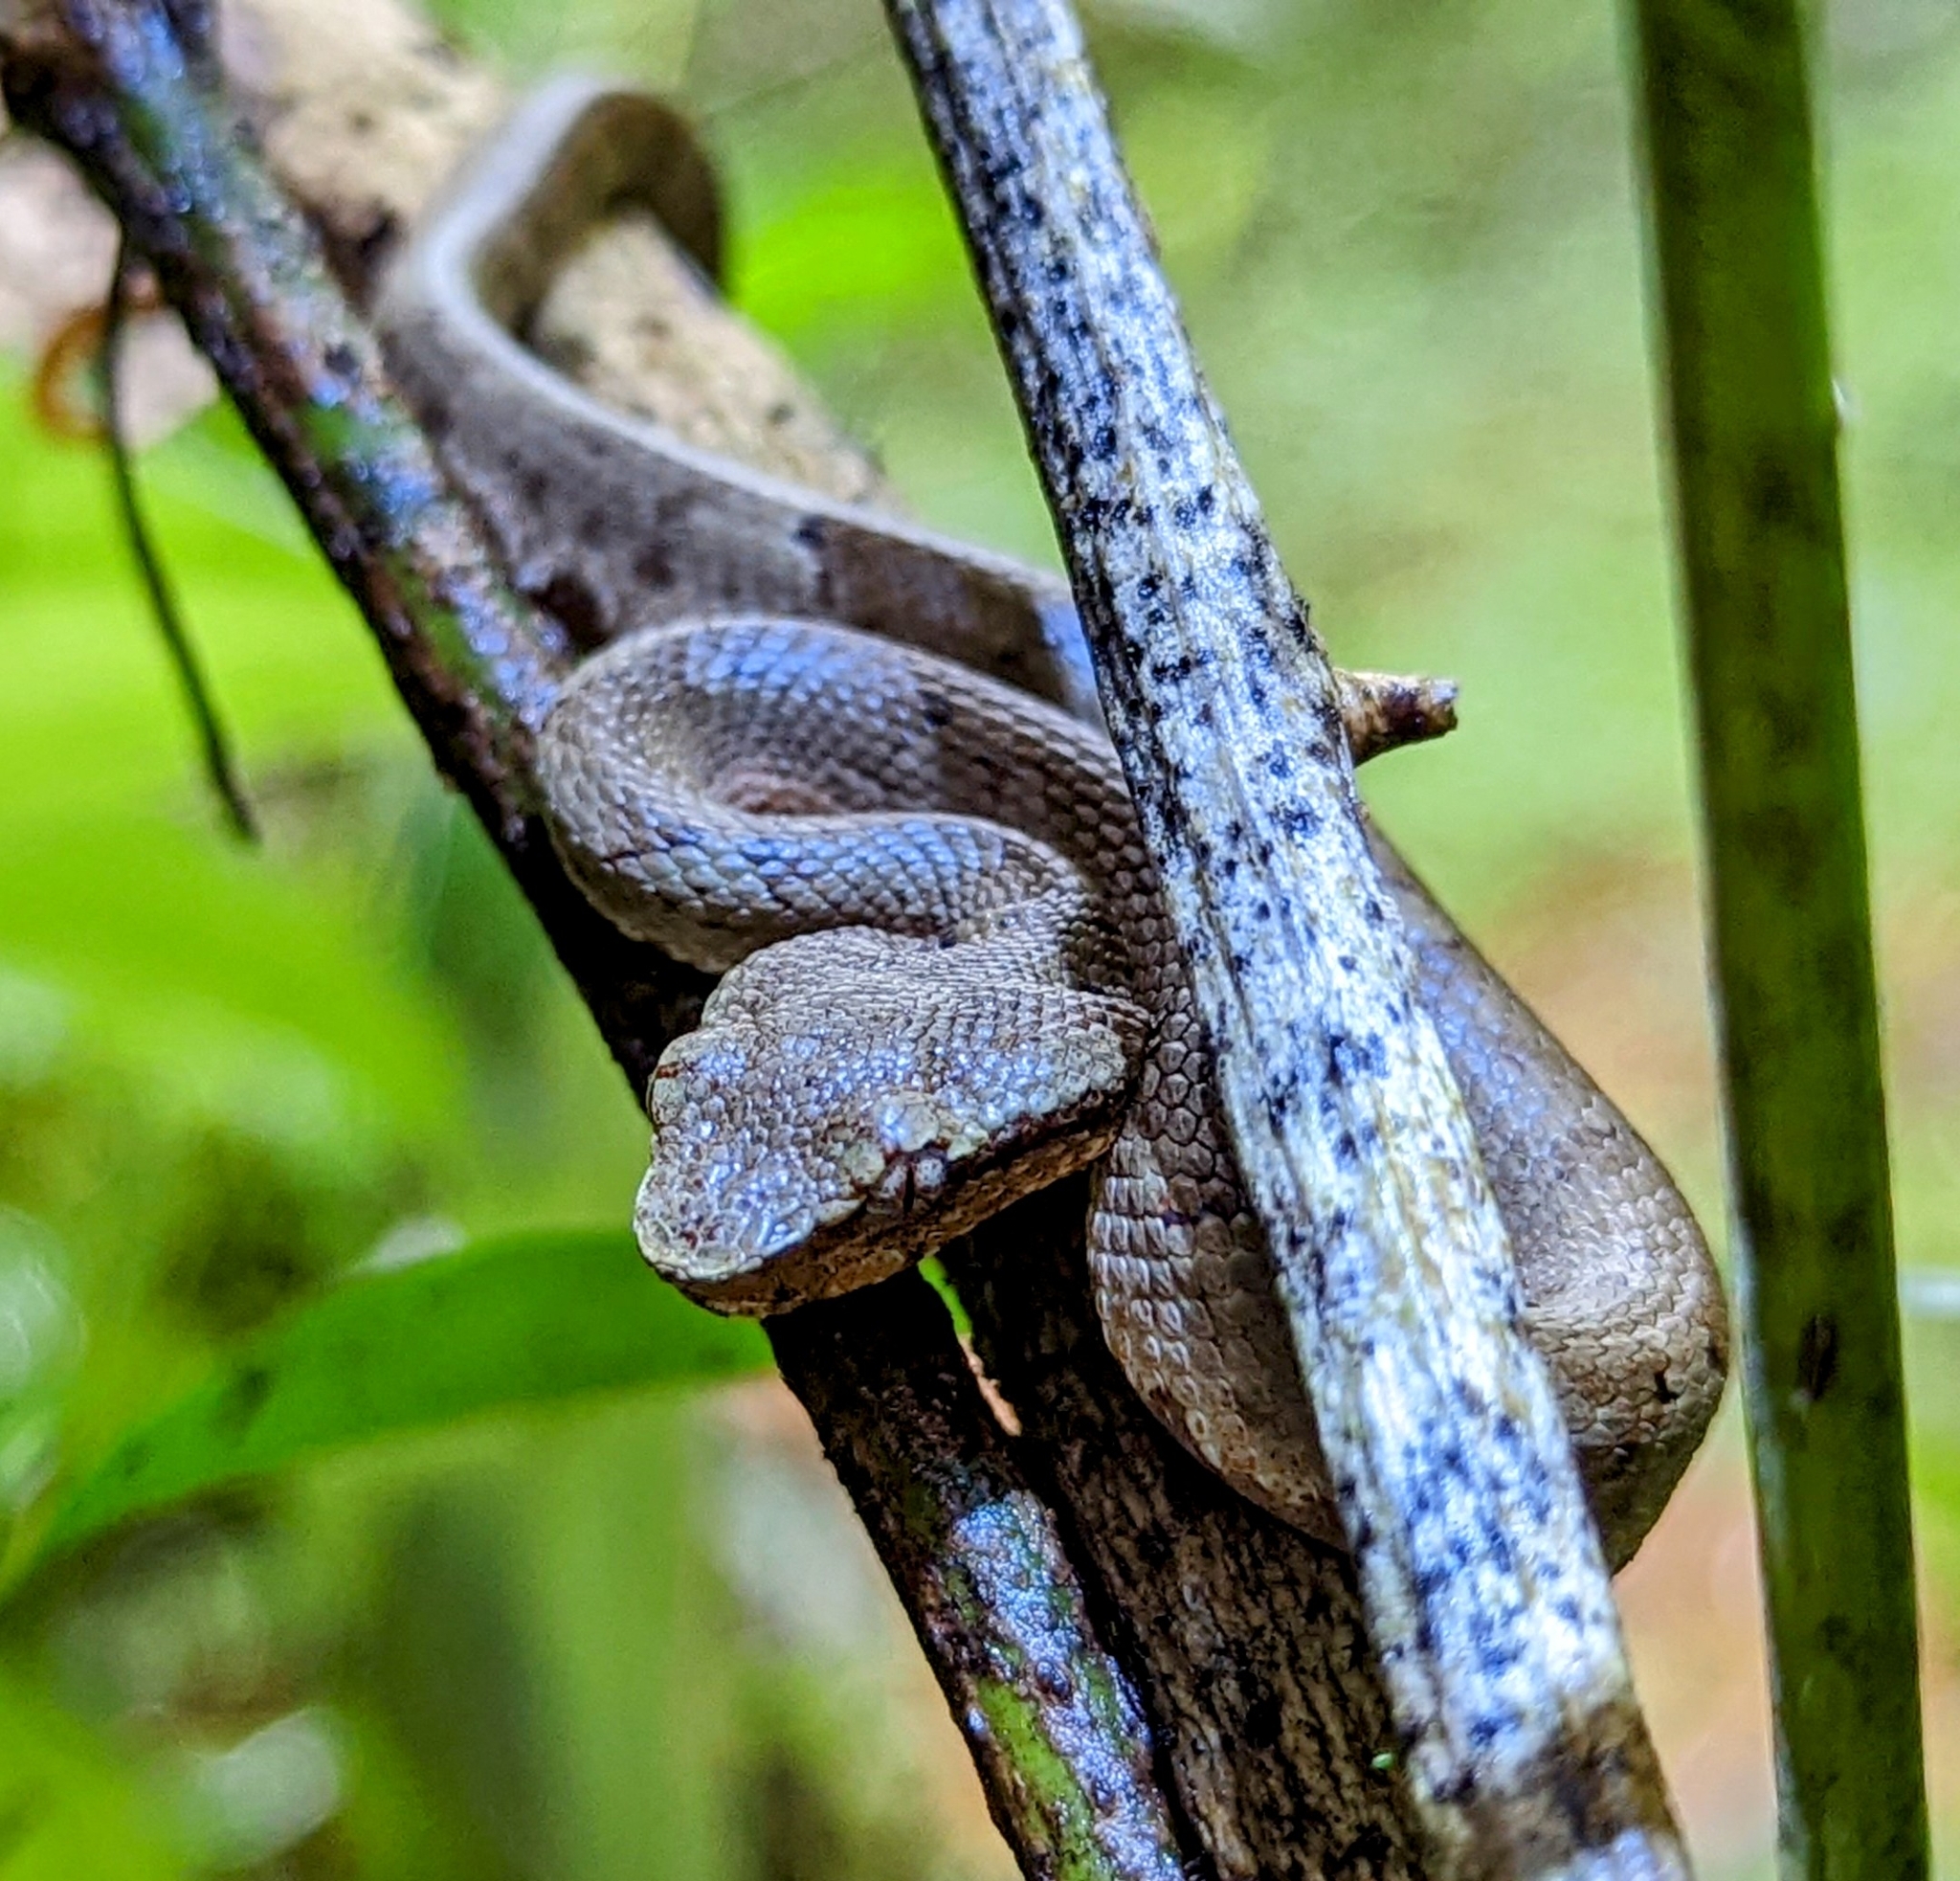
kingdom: Animalia
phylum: Chordata
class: Squamata
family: Viperidae
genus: Craspedocephalus
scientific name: Craspedocephalus malabaricus
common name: Malabarian pit viper
